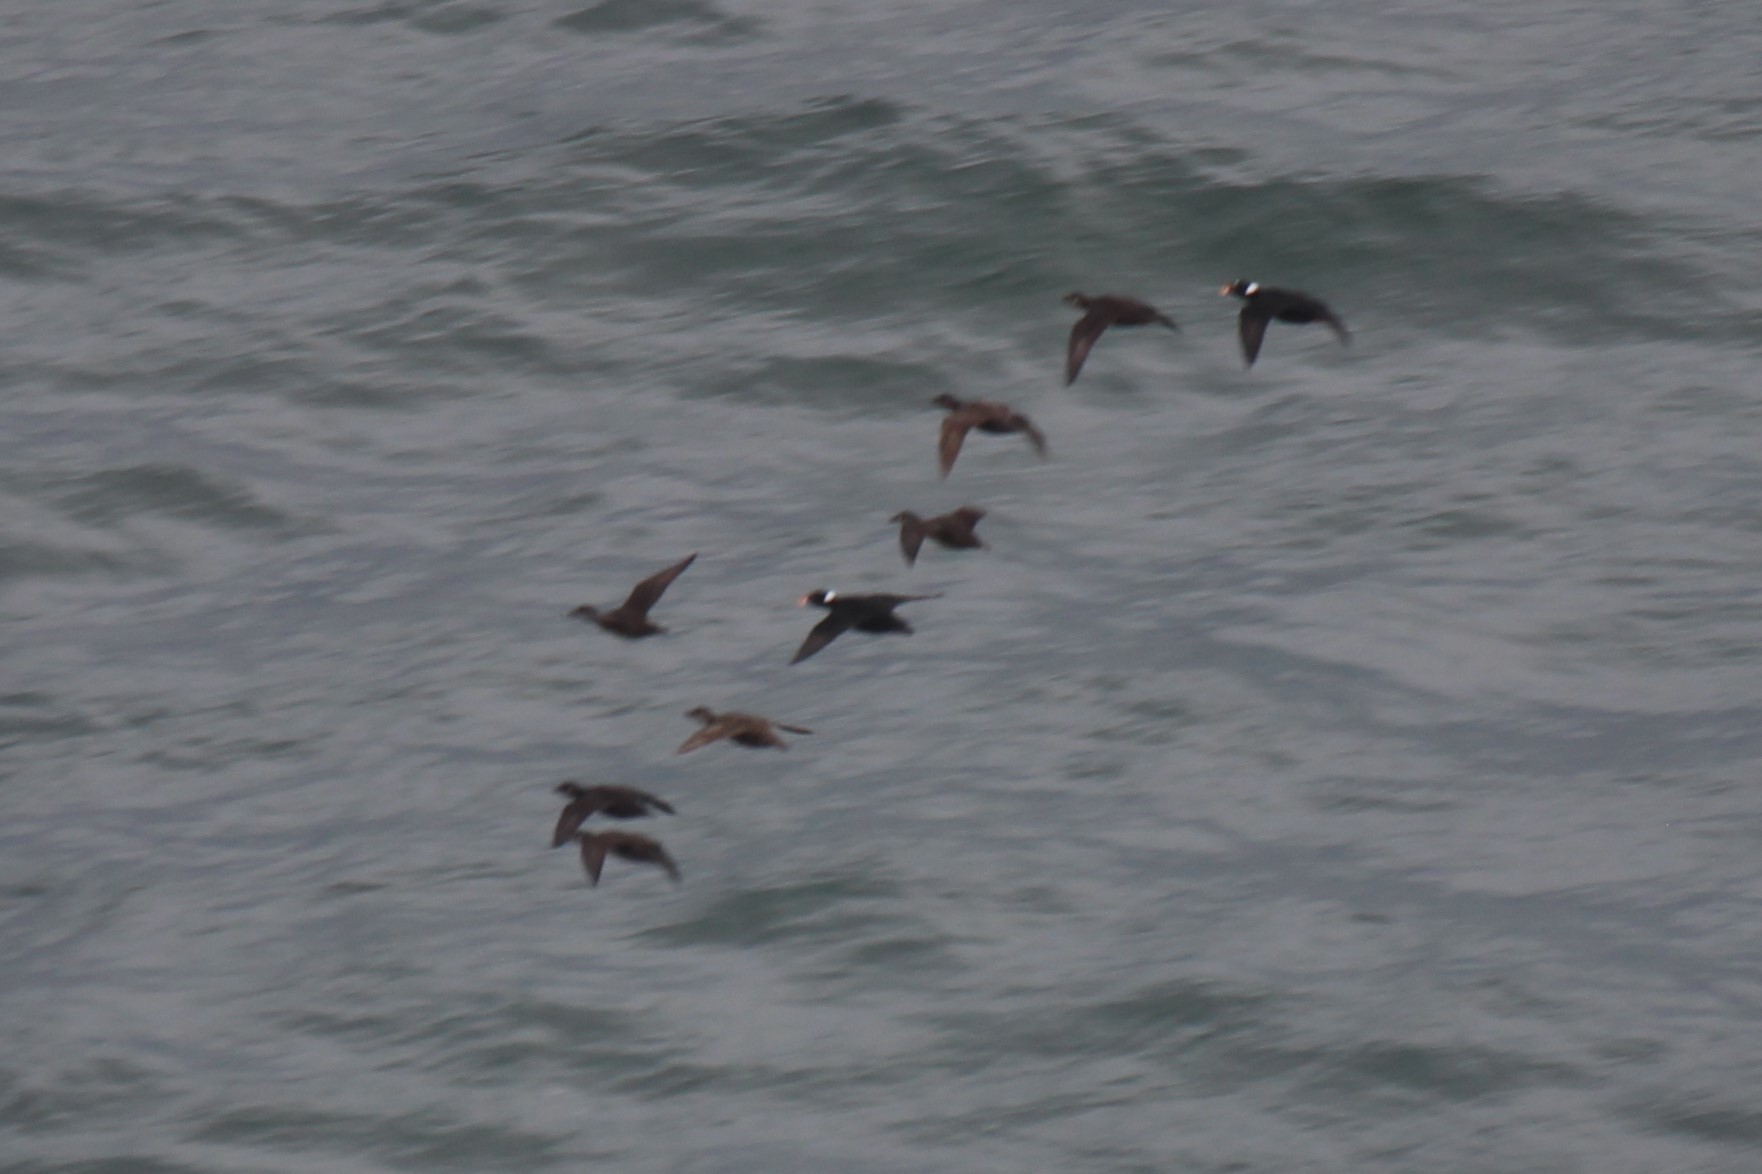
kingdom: Animalia
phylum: Chordata
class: Aves
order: Anseriformes
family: Anatidae
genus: Melanitta
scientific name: Melanitta perspicillata
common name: Surf scoter
